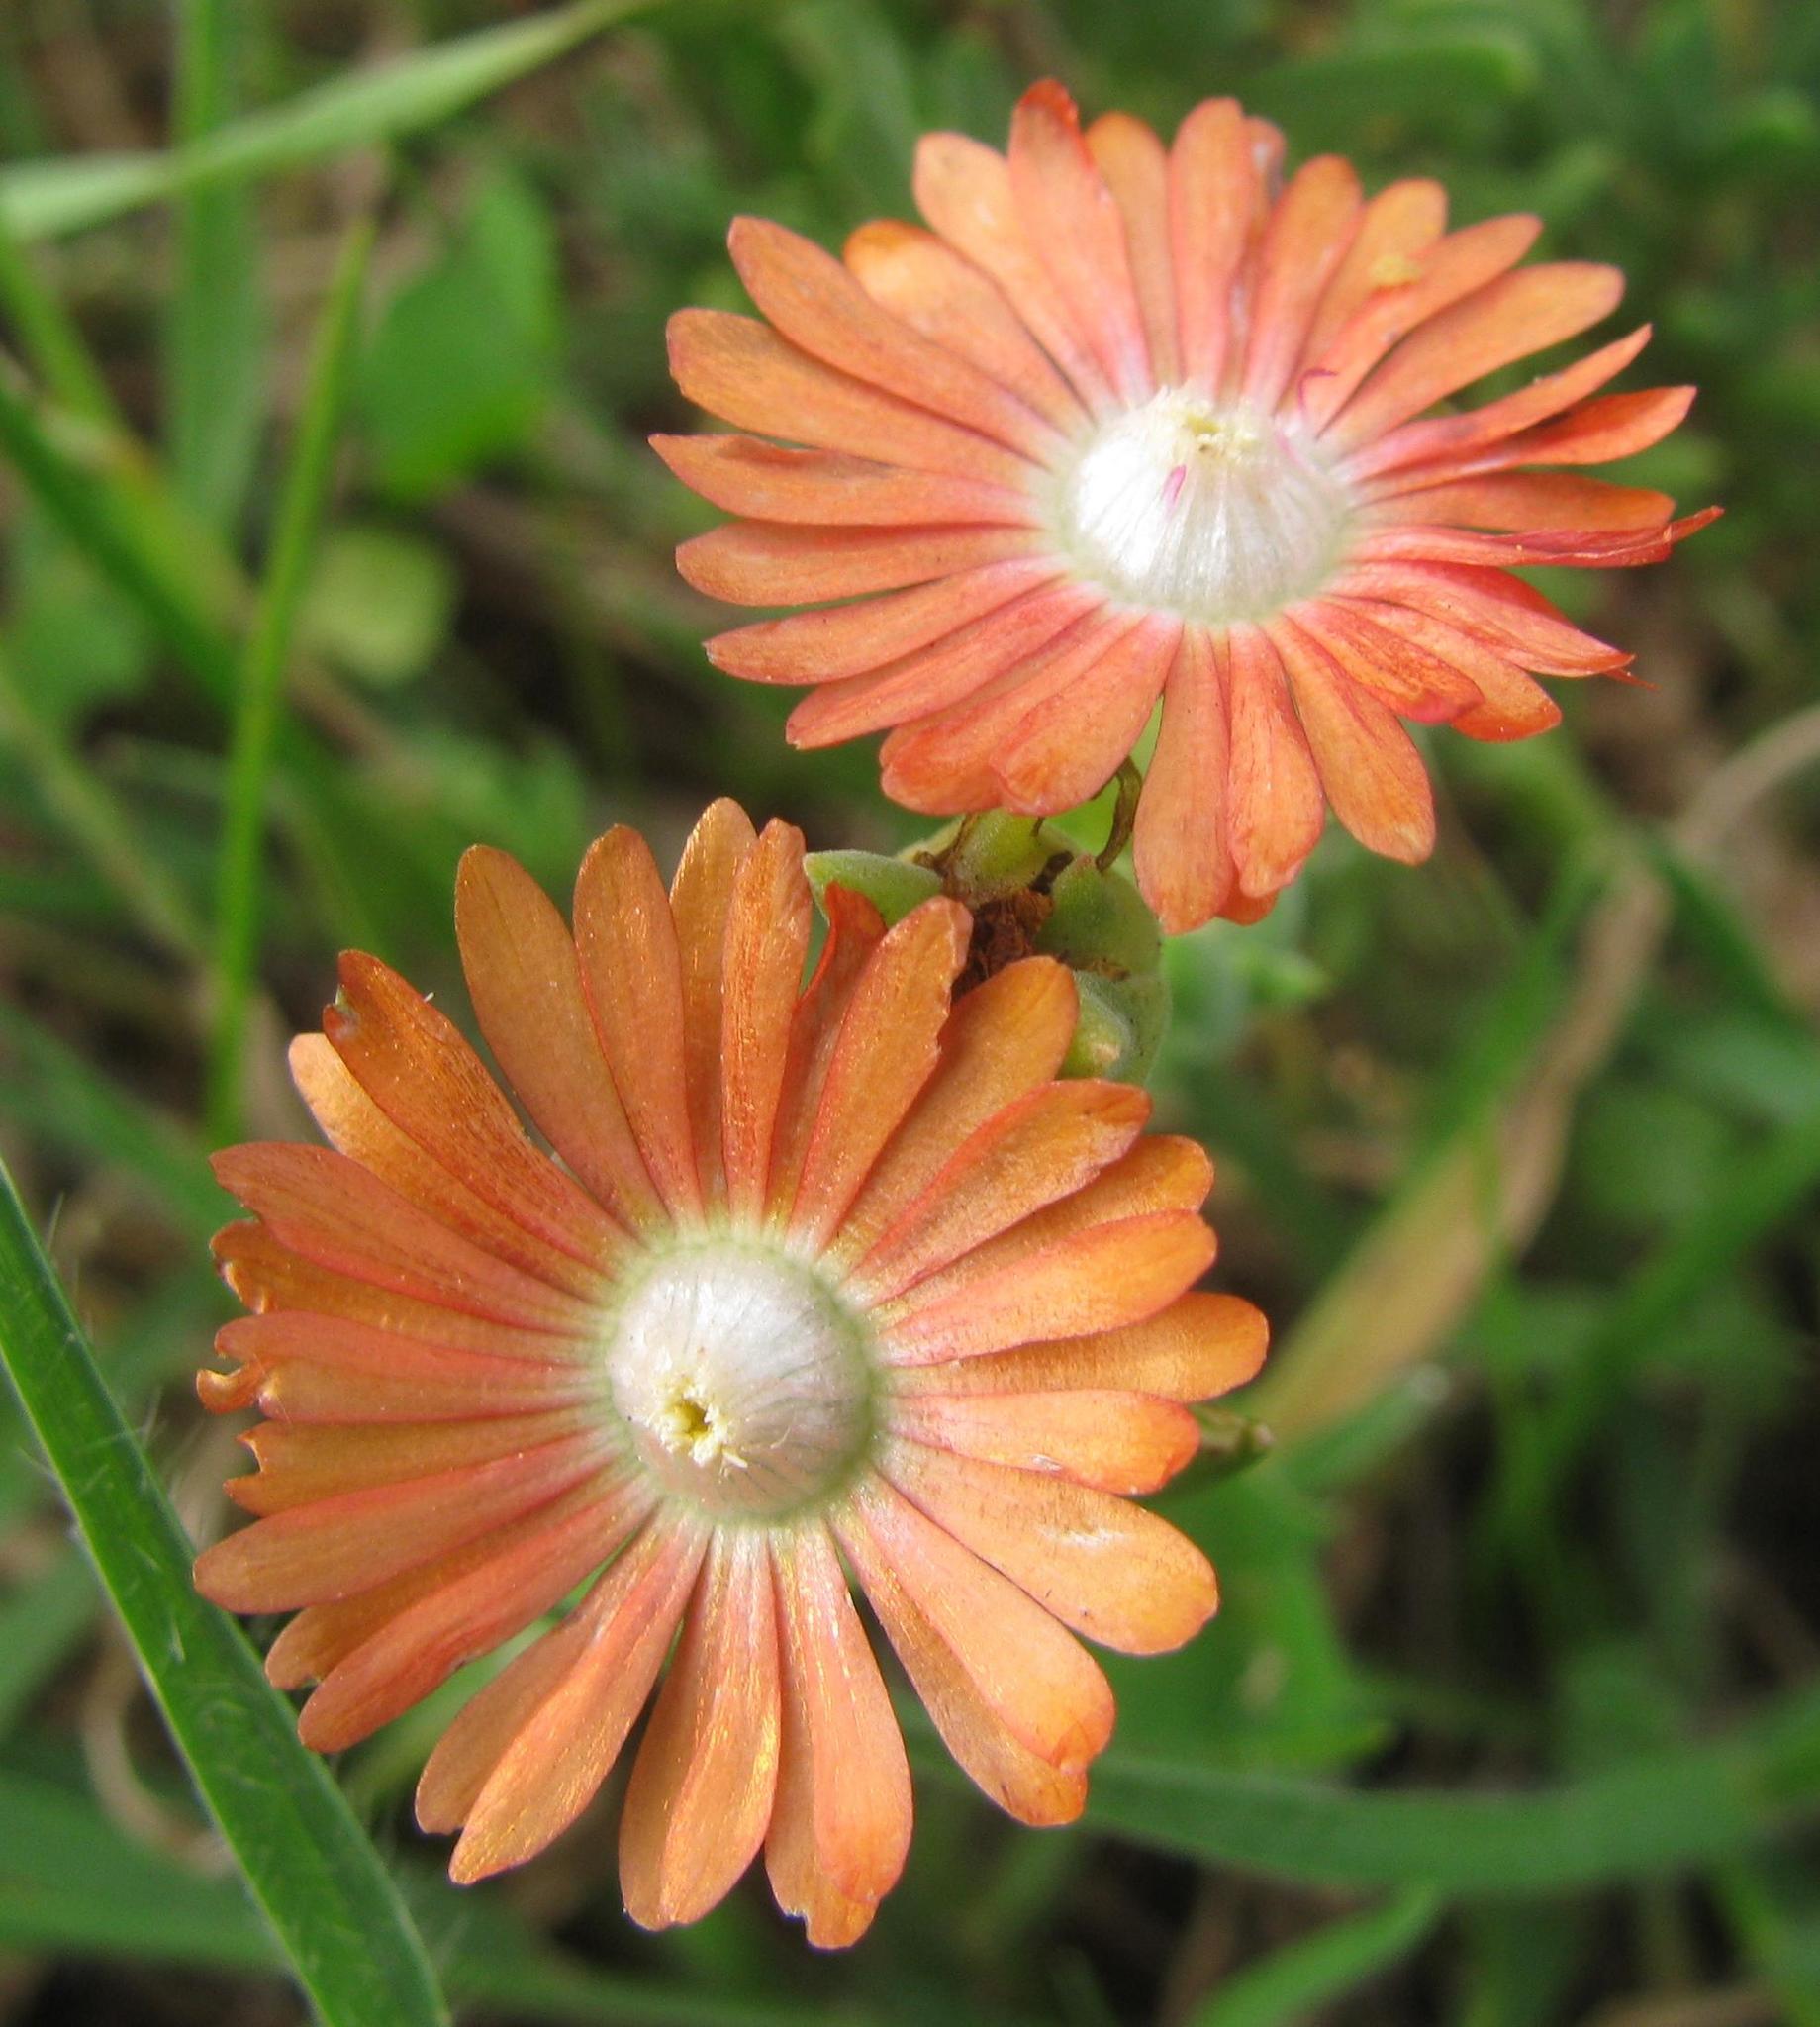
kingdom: Plantae
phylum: Tracheophyta
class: Magnoliopsida
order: Caryophyllales
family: Aizoaceae
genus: Delosperma
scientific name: Delosperma aereum
